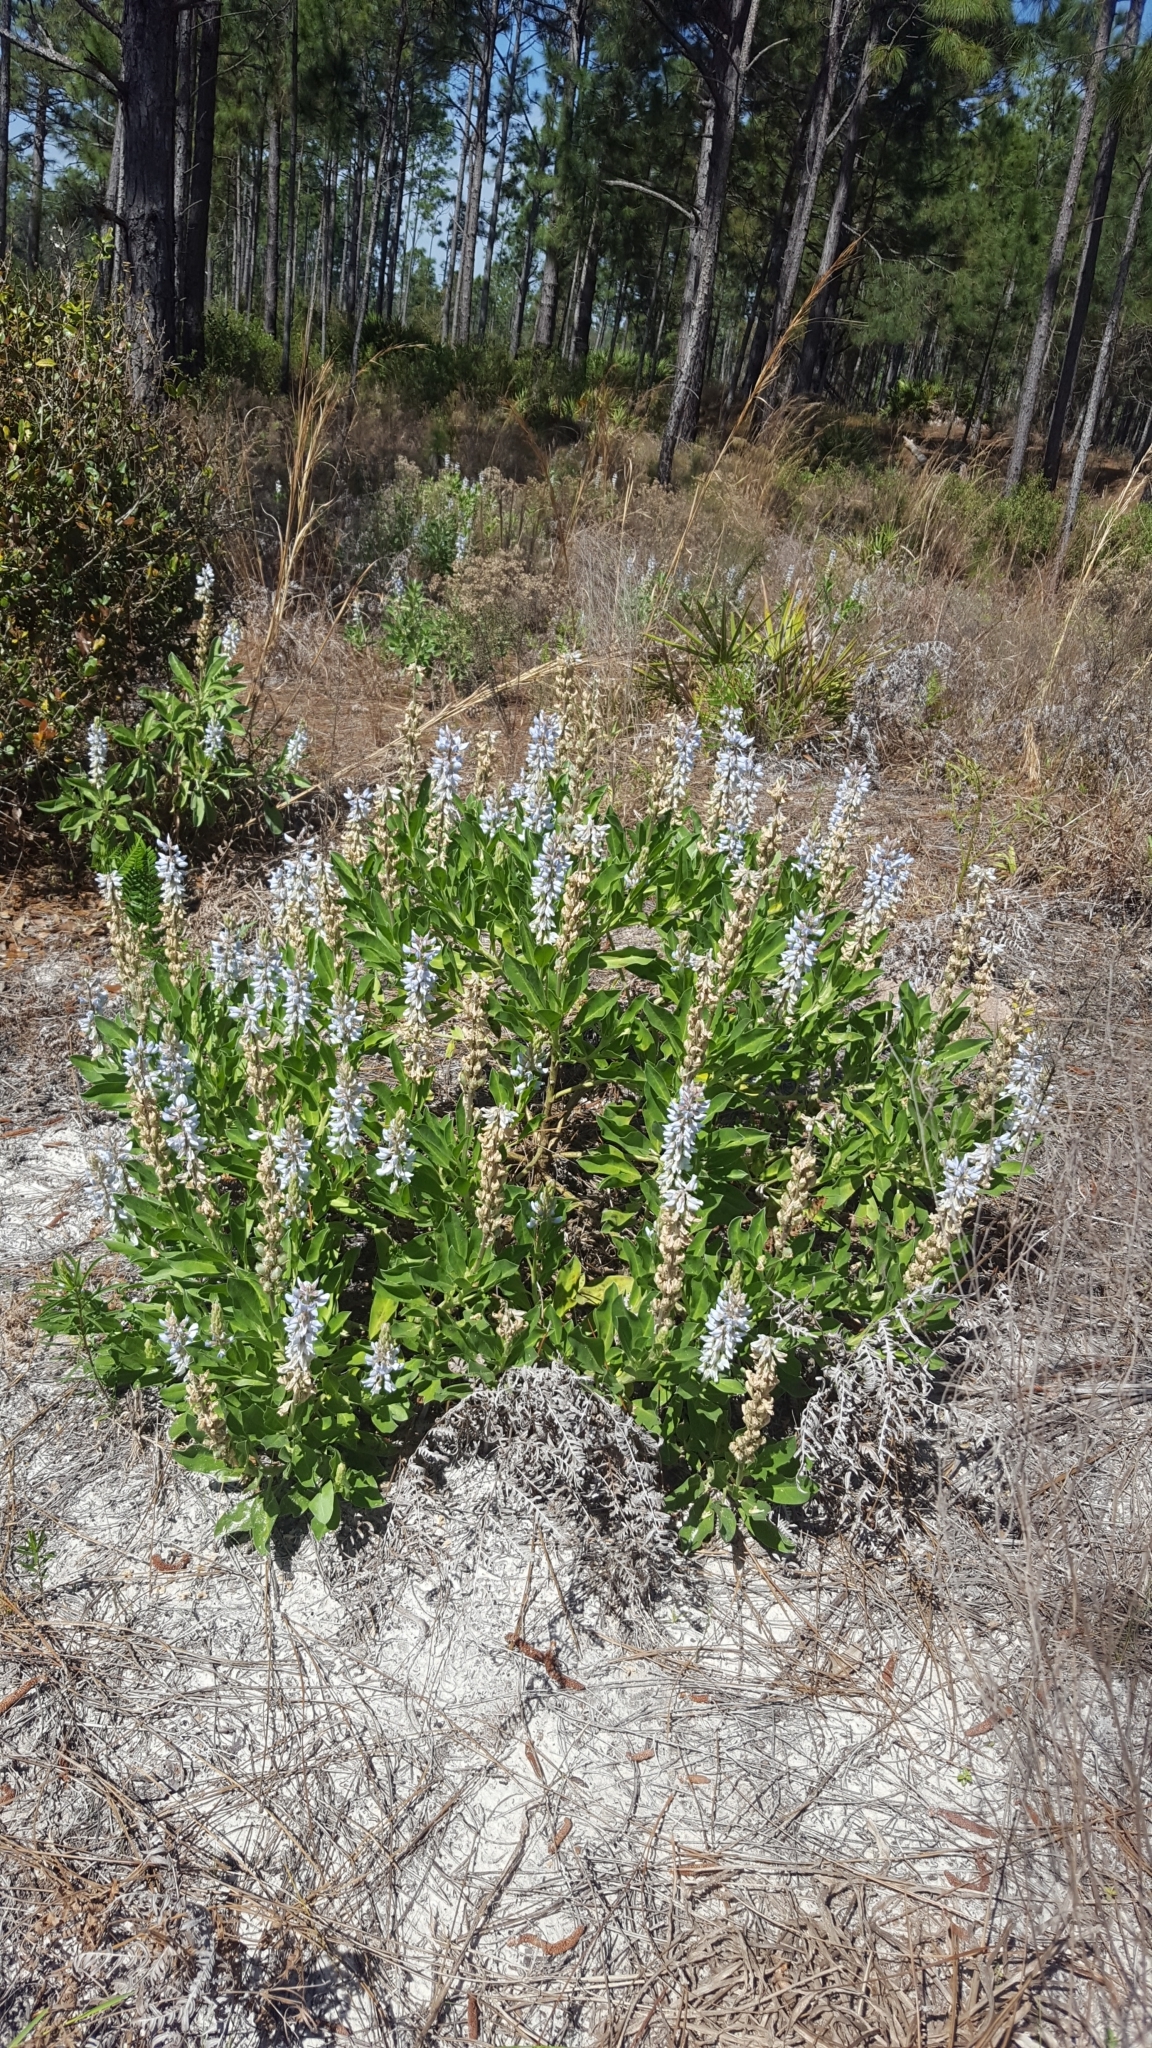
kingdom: Plantae
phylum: Tracheophyta
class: Magnoliopsida
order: Fabales
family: Fabaceae
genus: Lupinus
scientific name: Lupinus
